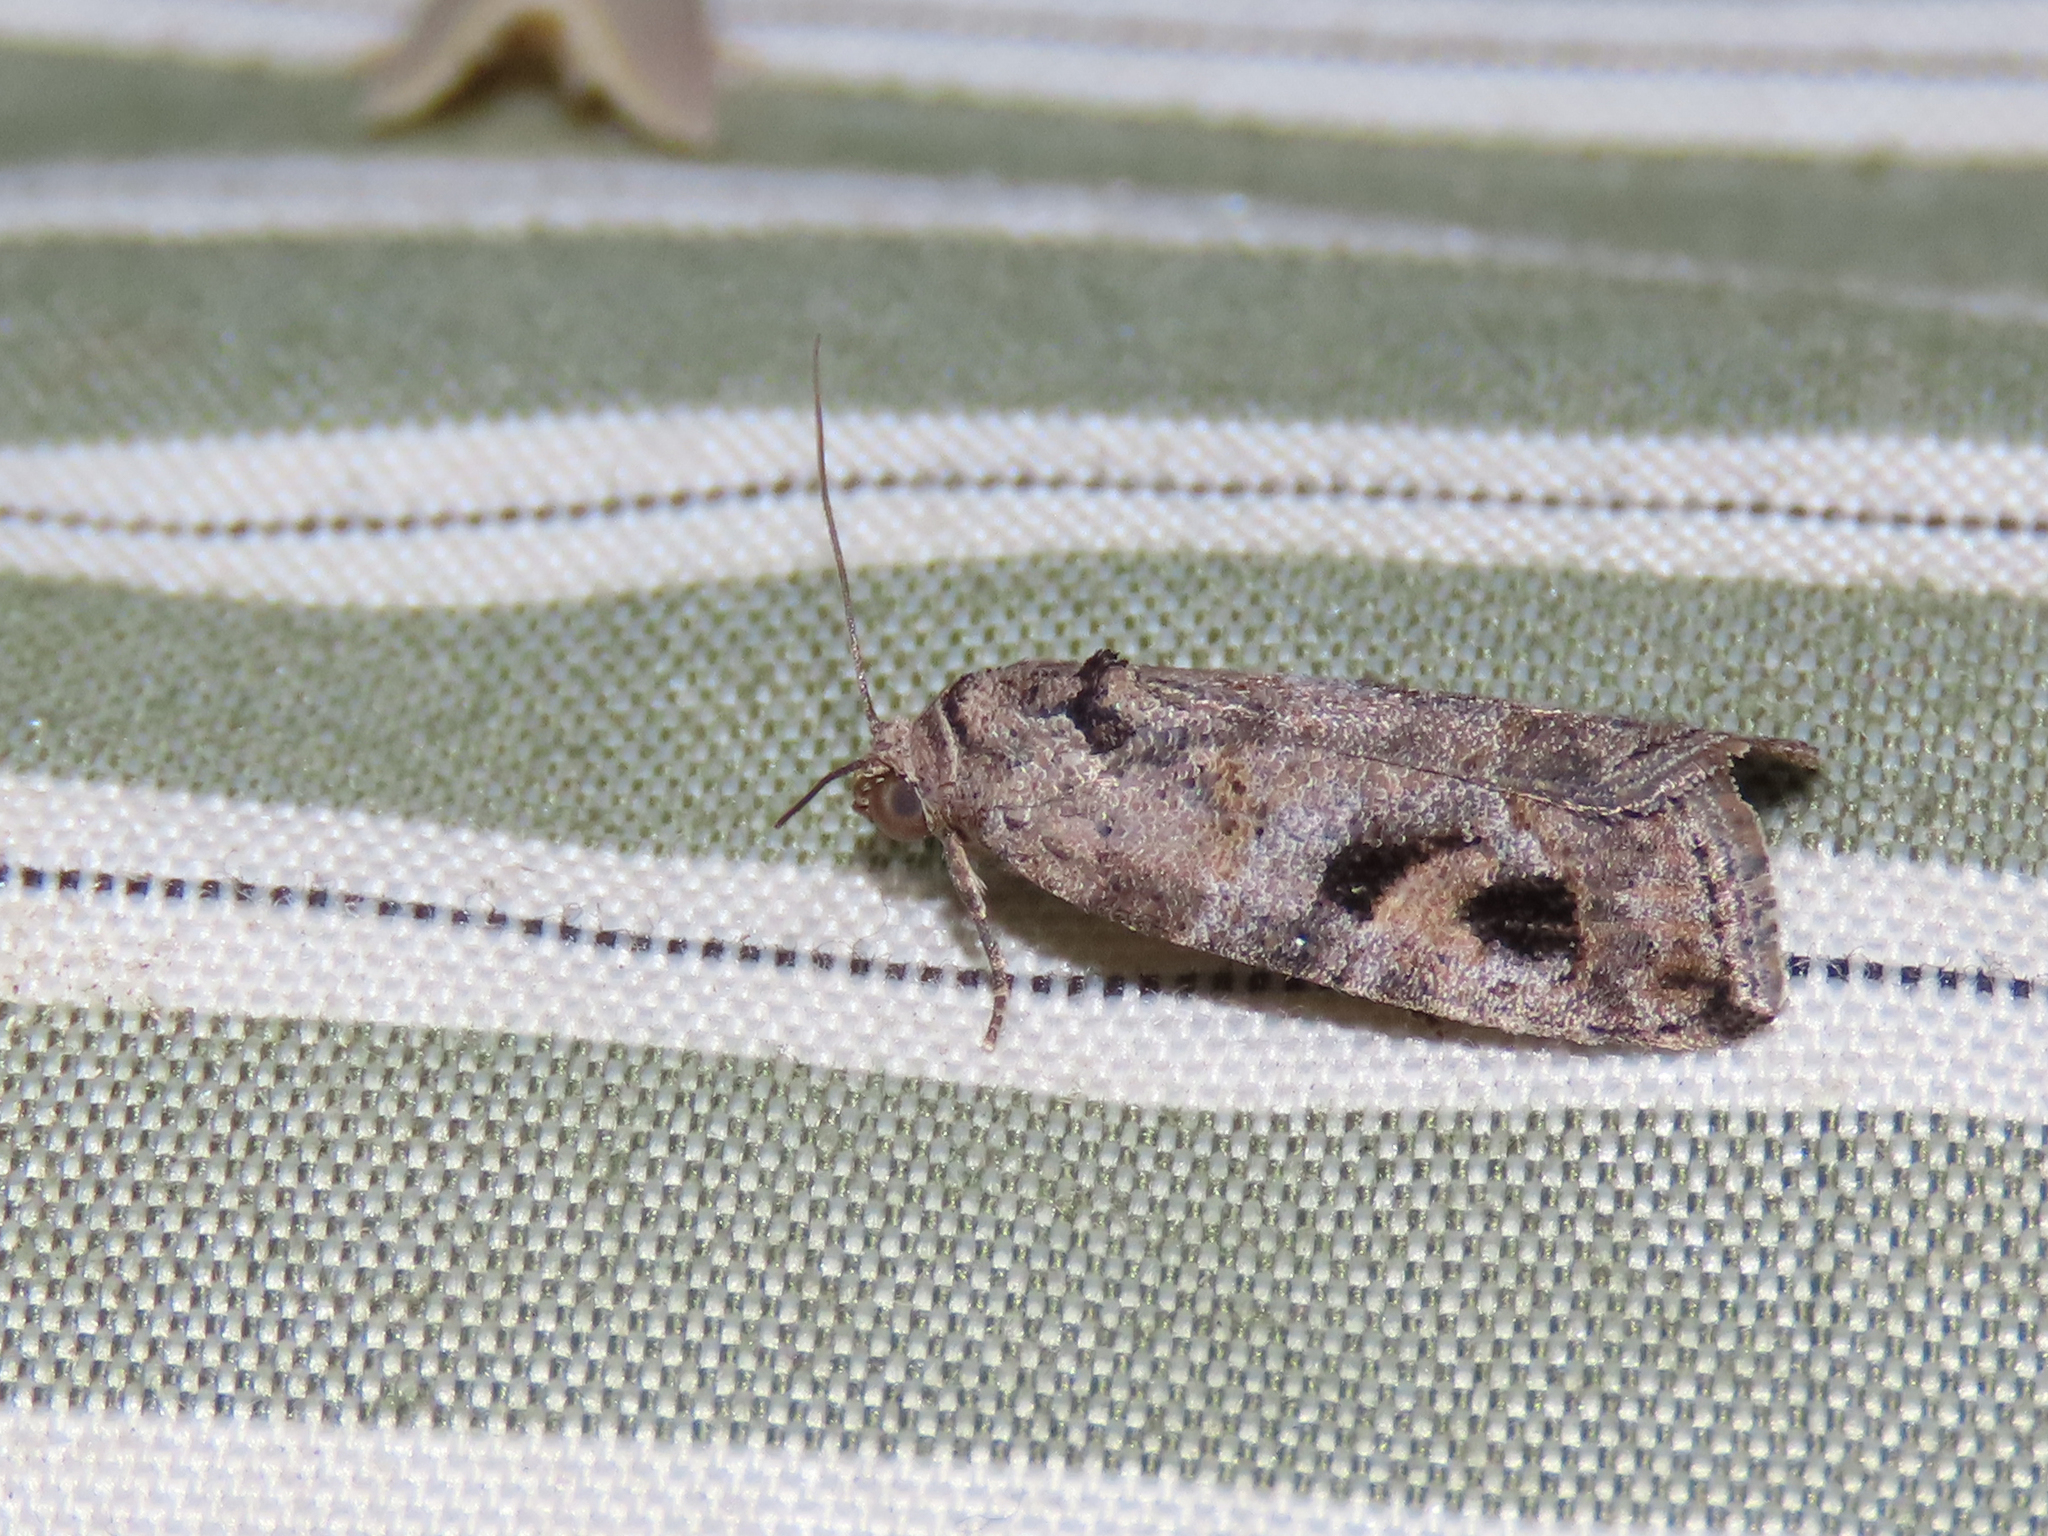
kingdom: Animalia
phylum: Arthropoda
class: Insecta
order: Lepidoptera
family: Noctuidae
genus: Metaponpneumata
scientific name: Metaponpneumata rogenhoferi
